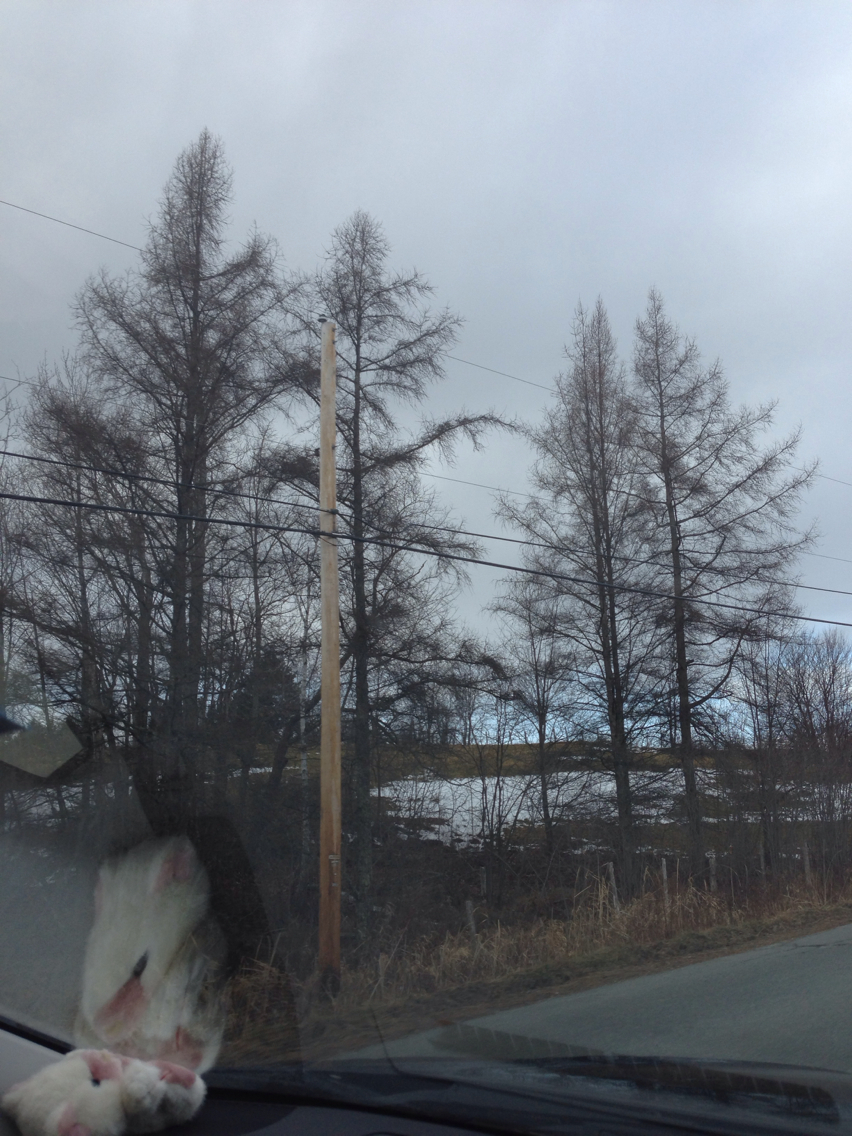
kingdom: Plantae
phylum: Tracheophyta
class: Pinopsida
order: Pinales
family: Pinaceae
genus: Larix
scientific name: Larix laricina
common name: American larch
